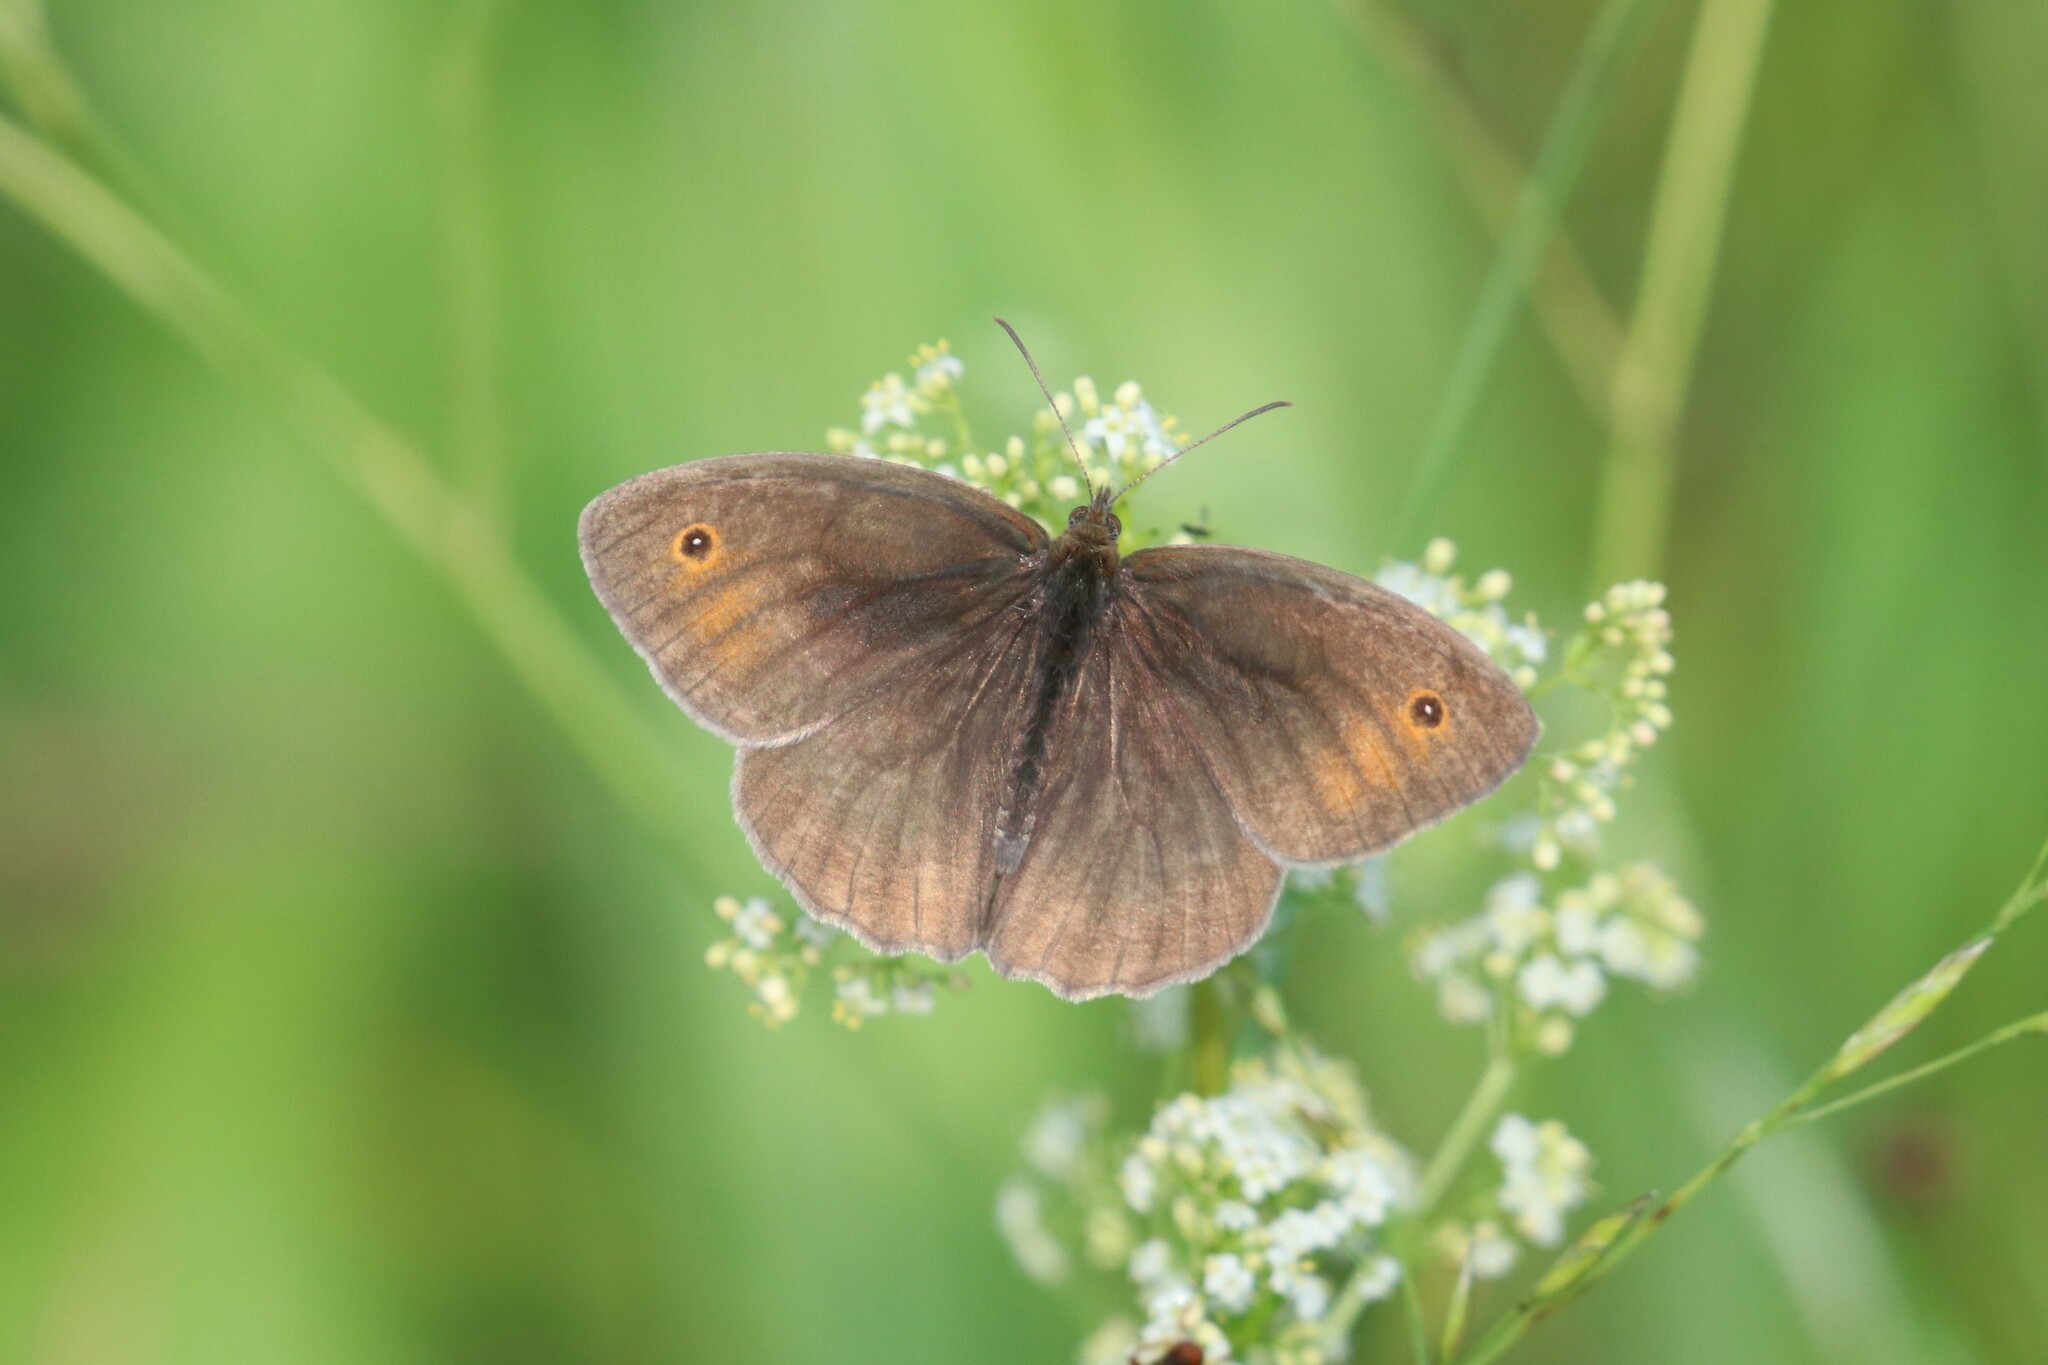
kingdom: Animalia
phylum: Arthropoda
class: Insecta
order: Lepidoptera
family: Nymphalidae
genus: Maniola
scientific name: Maniola jurtina
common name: Meadow brown
